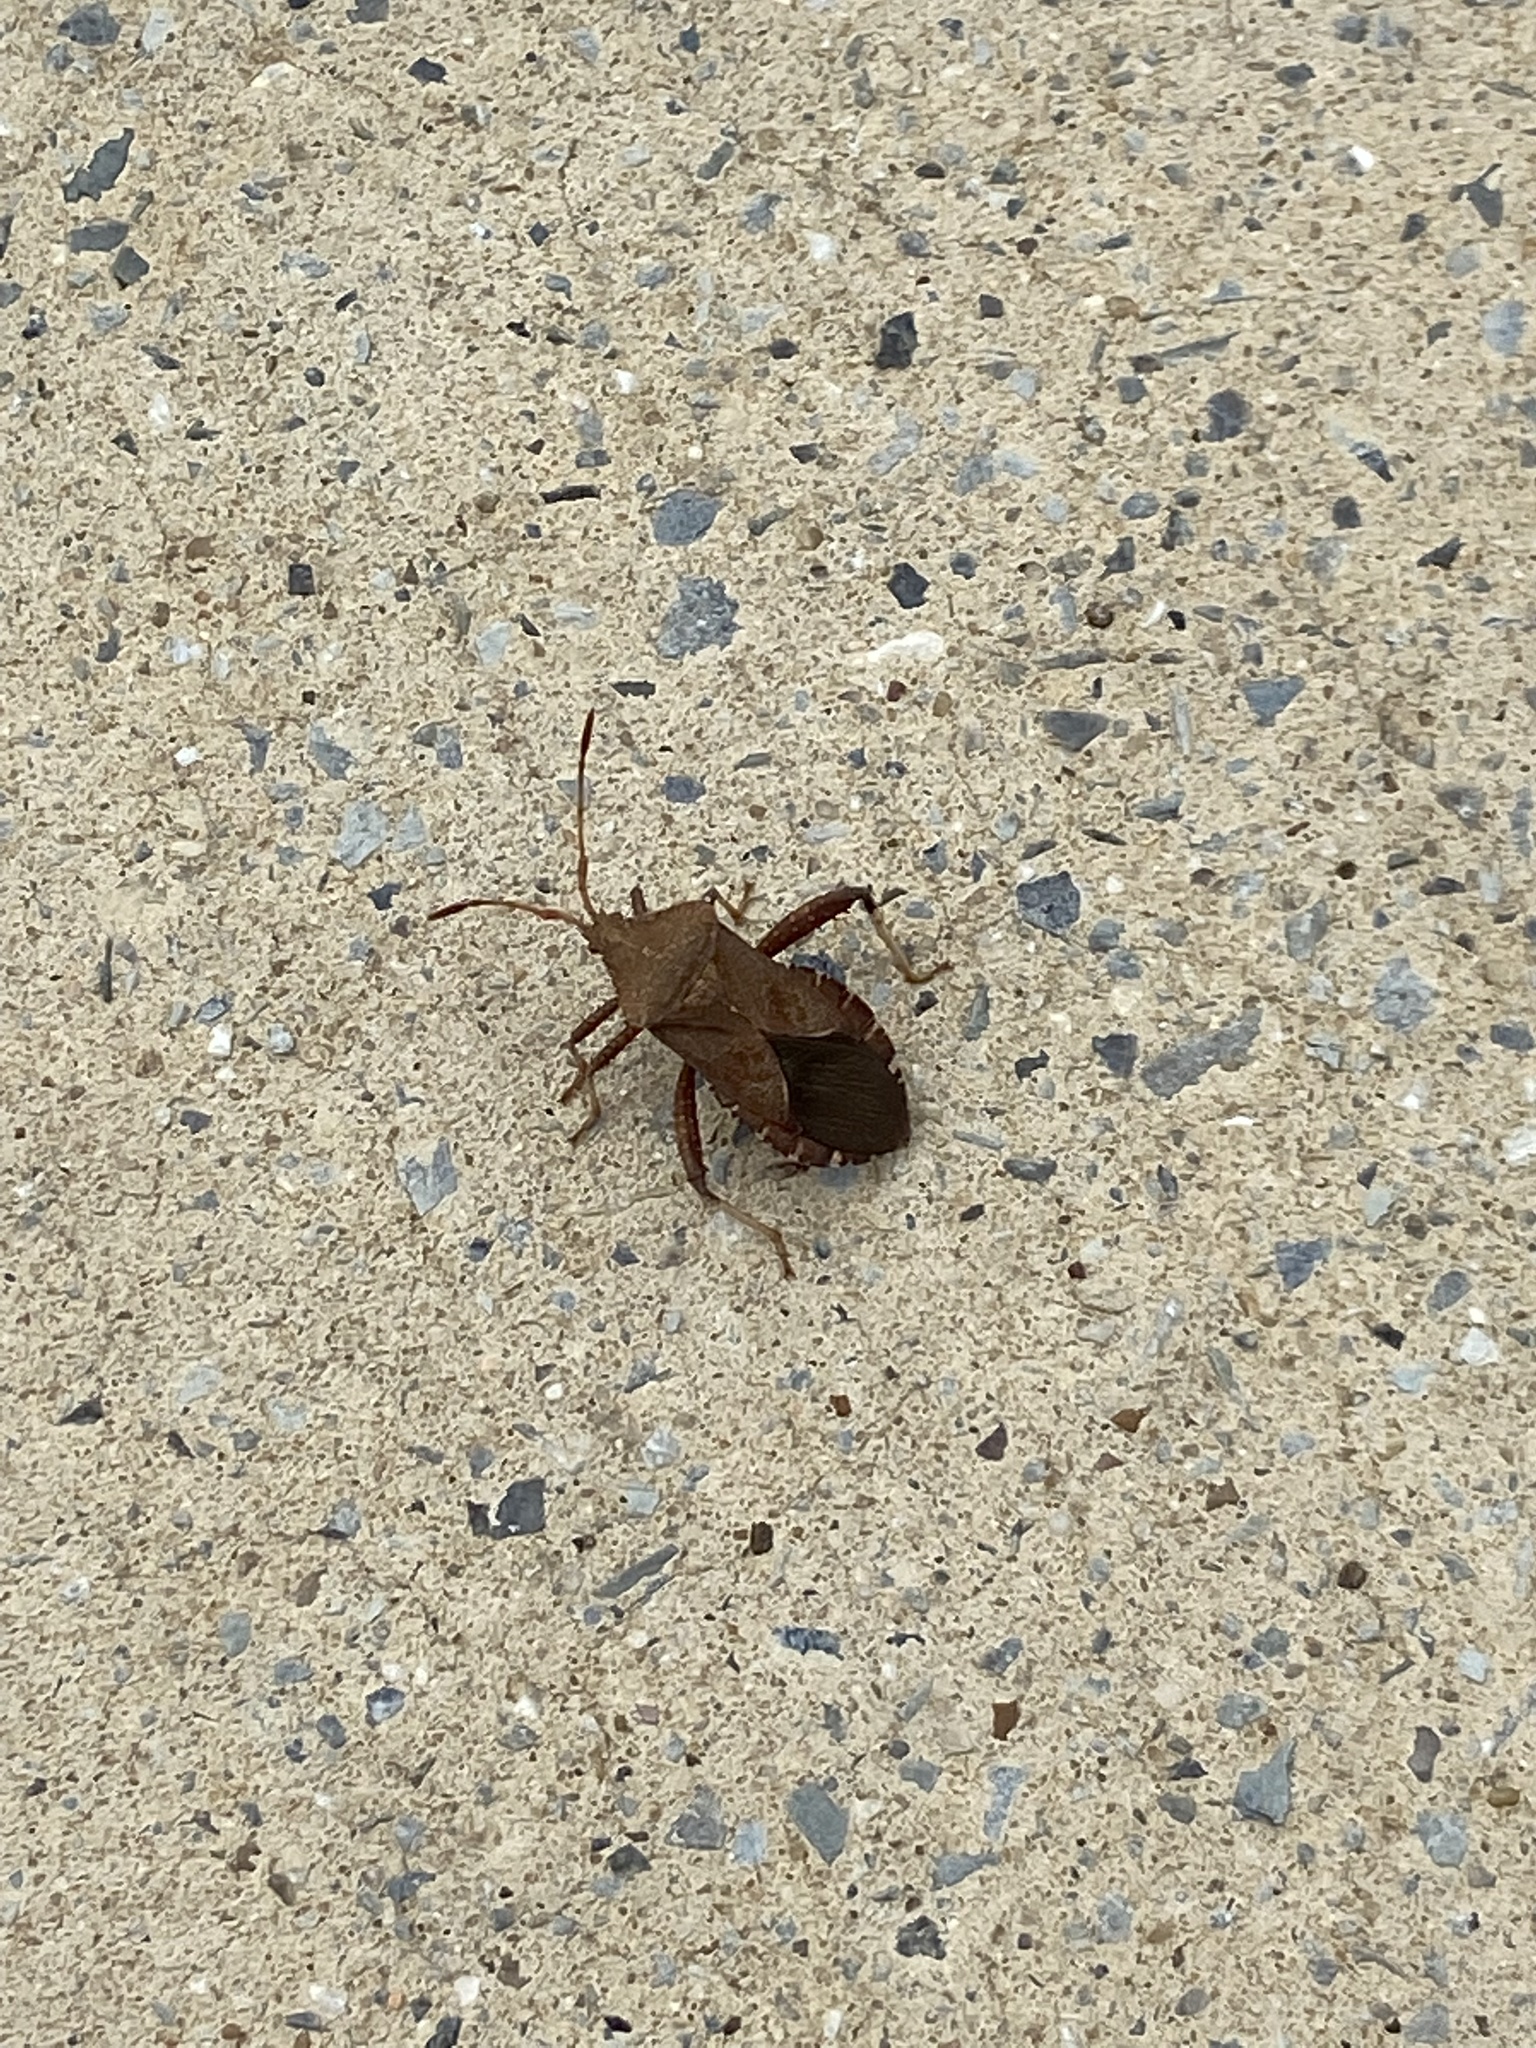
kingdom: Animalia
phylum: Arthropoda
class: Insecta
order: Hemiptera
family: Coreidae
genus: Euthochtha
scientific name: Euthochtha galeator
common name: Helmeted squash bug
